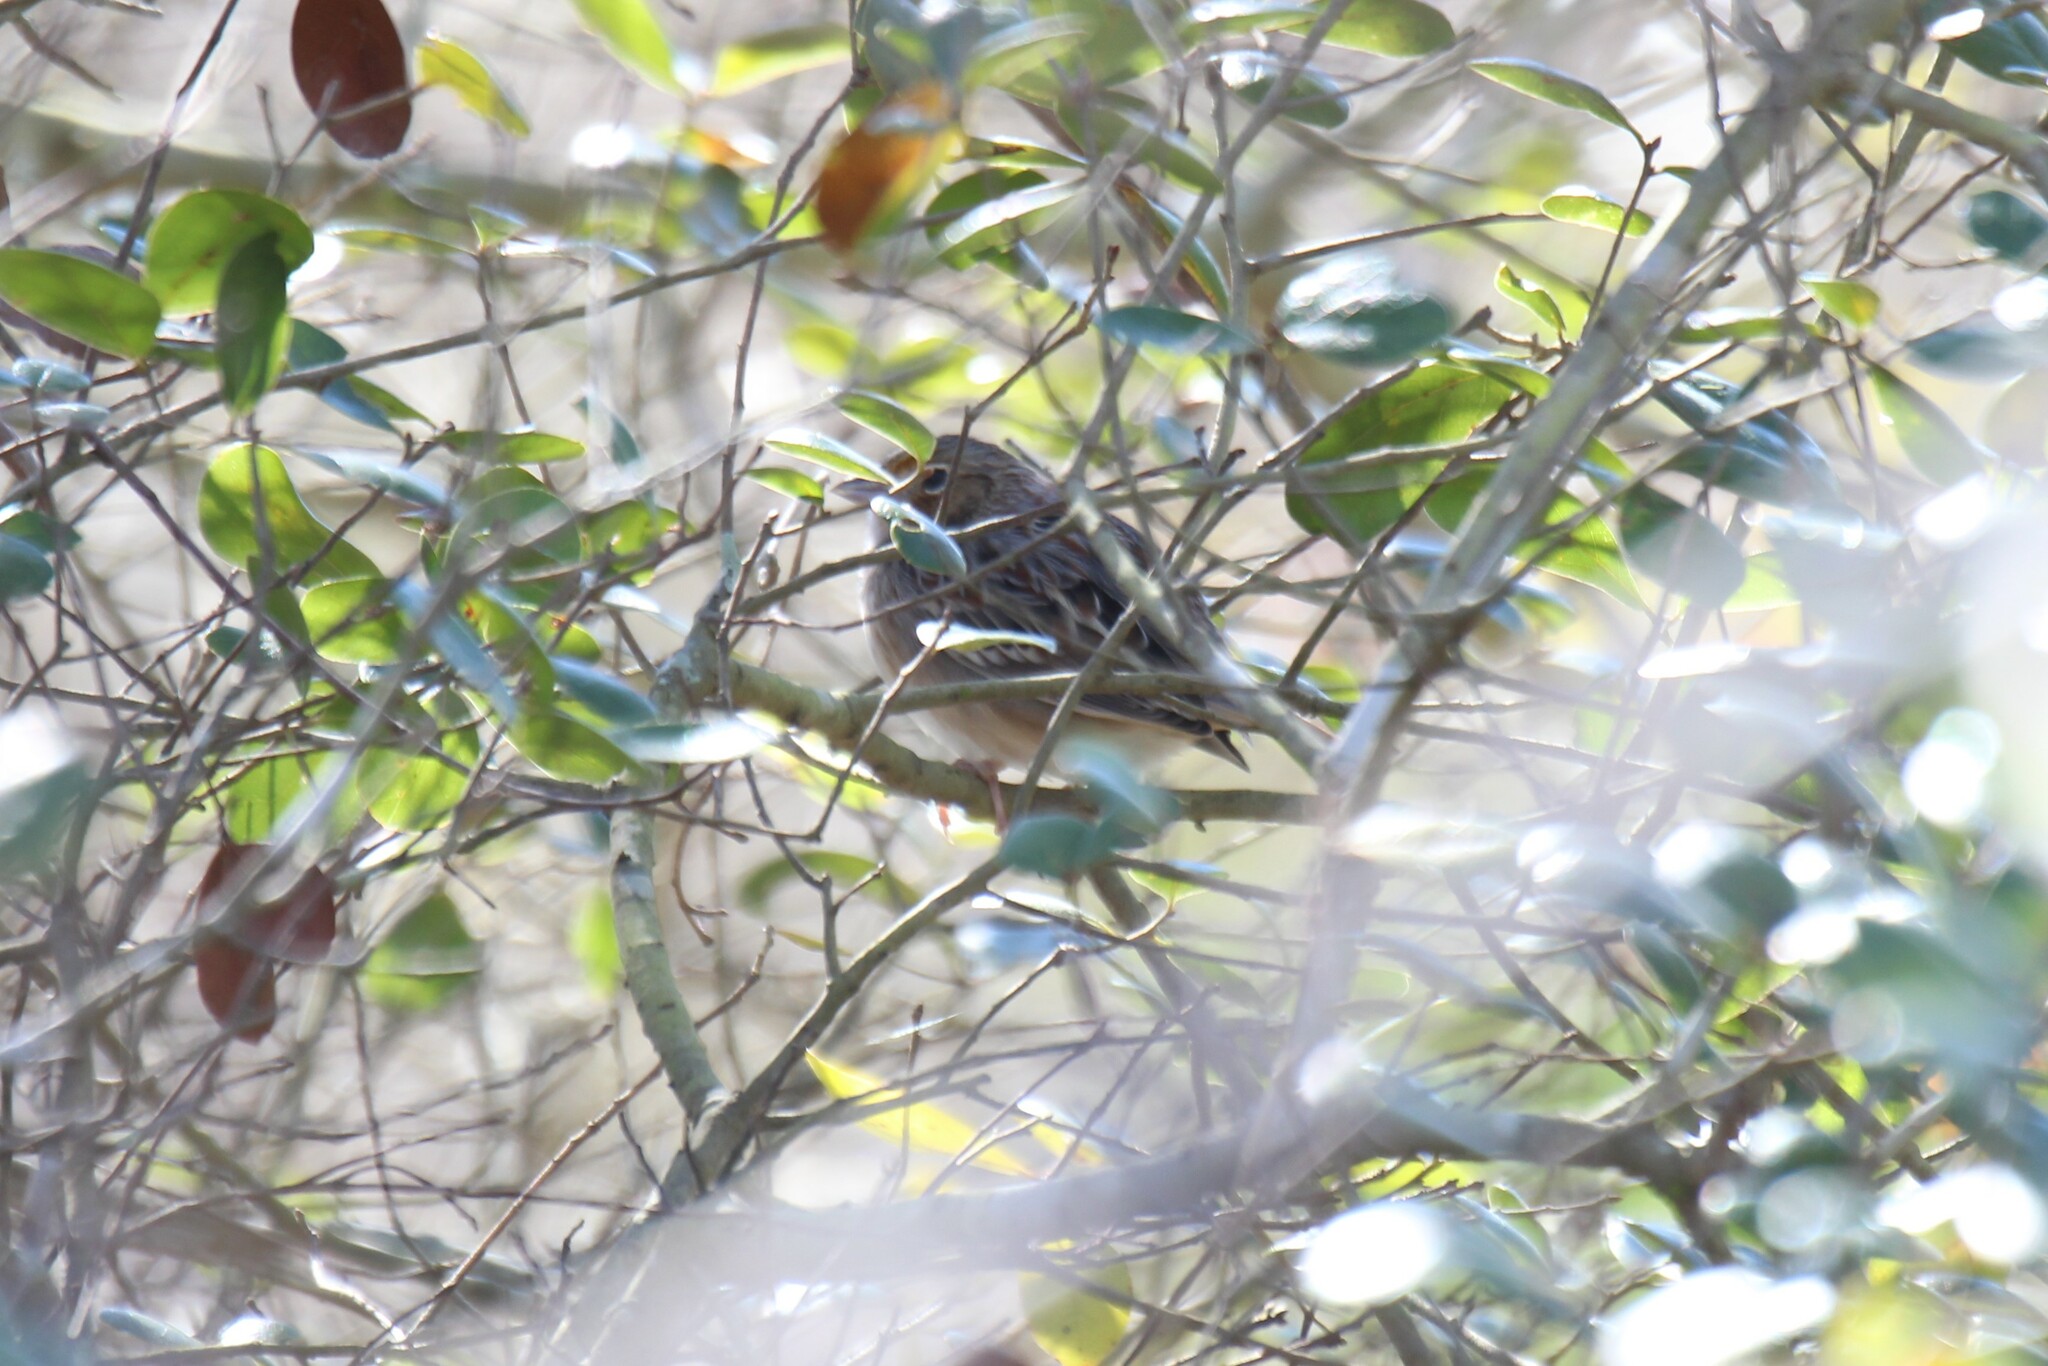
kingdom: Animalia
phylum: Chordata
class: Aves
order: Passeriformes
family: Passerellidae
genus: Ammodramus
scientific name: Ammodramus savannarum
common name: Grasshopper sparrow
